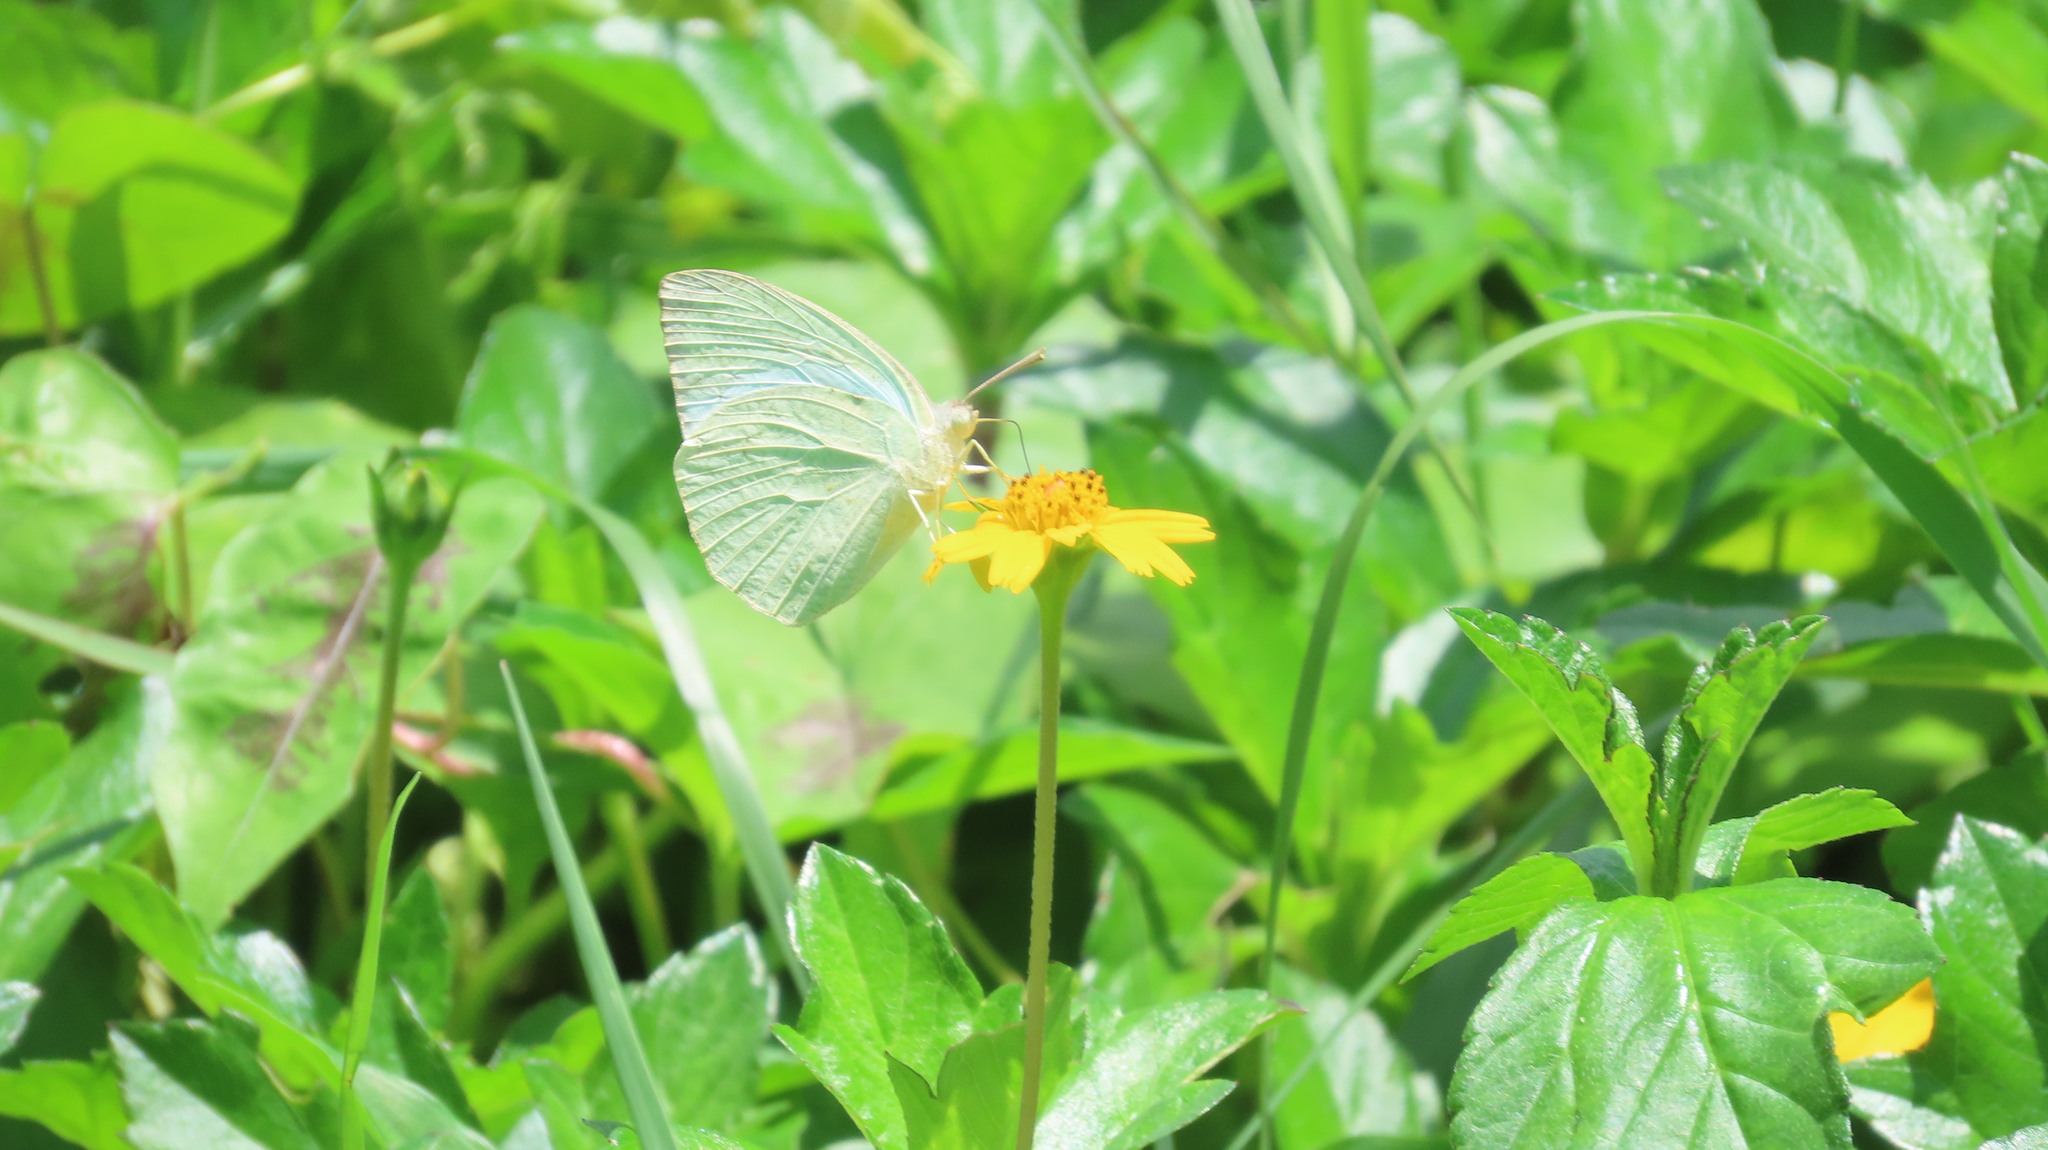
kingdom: Animalia
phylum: Arthropoda
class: Insecta
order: Lepidoptera
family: Pieridae
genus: Catopsilia
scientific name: Catopsilia pyranthe
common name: Mottled emigrant
